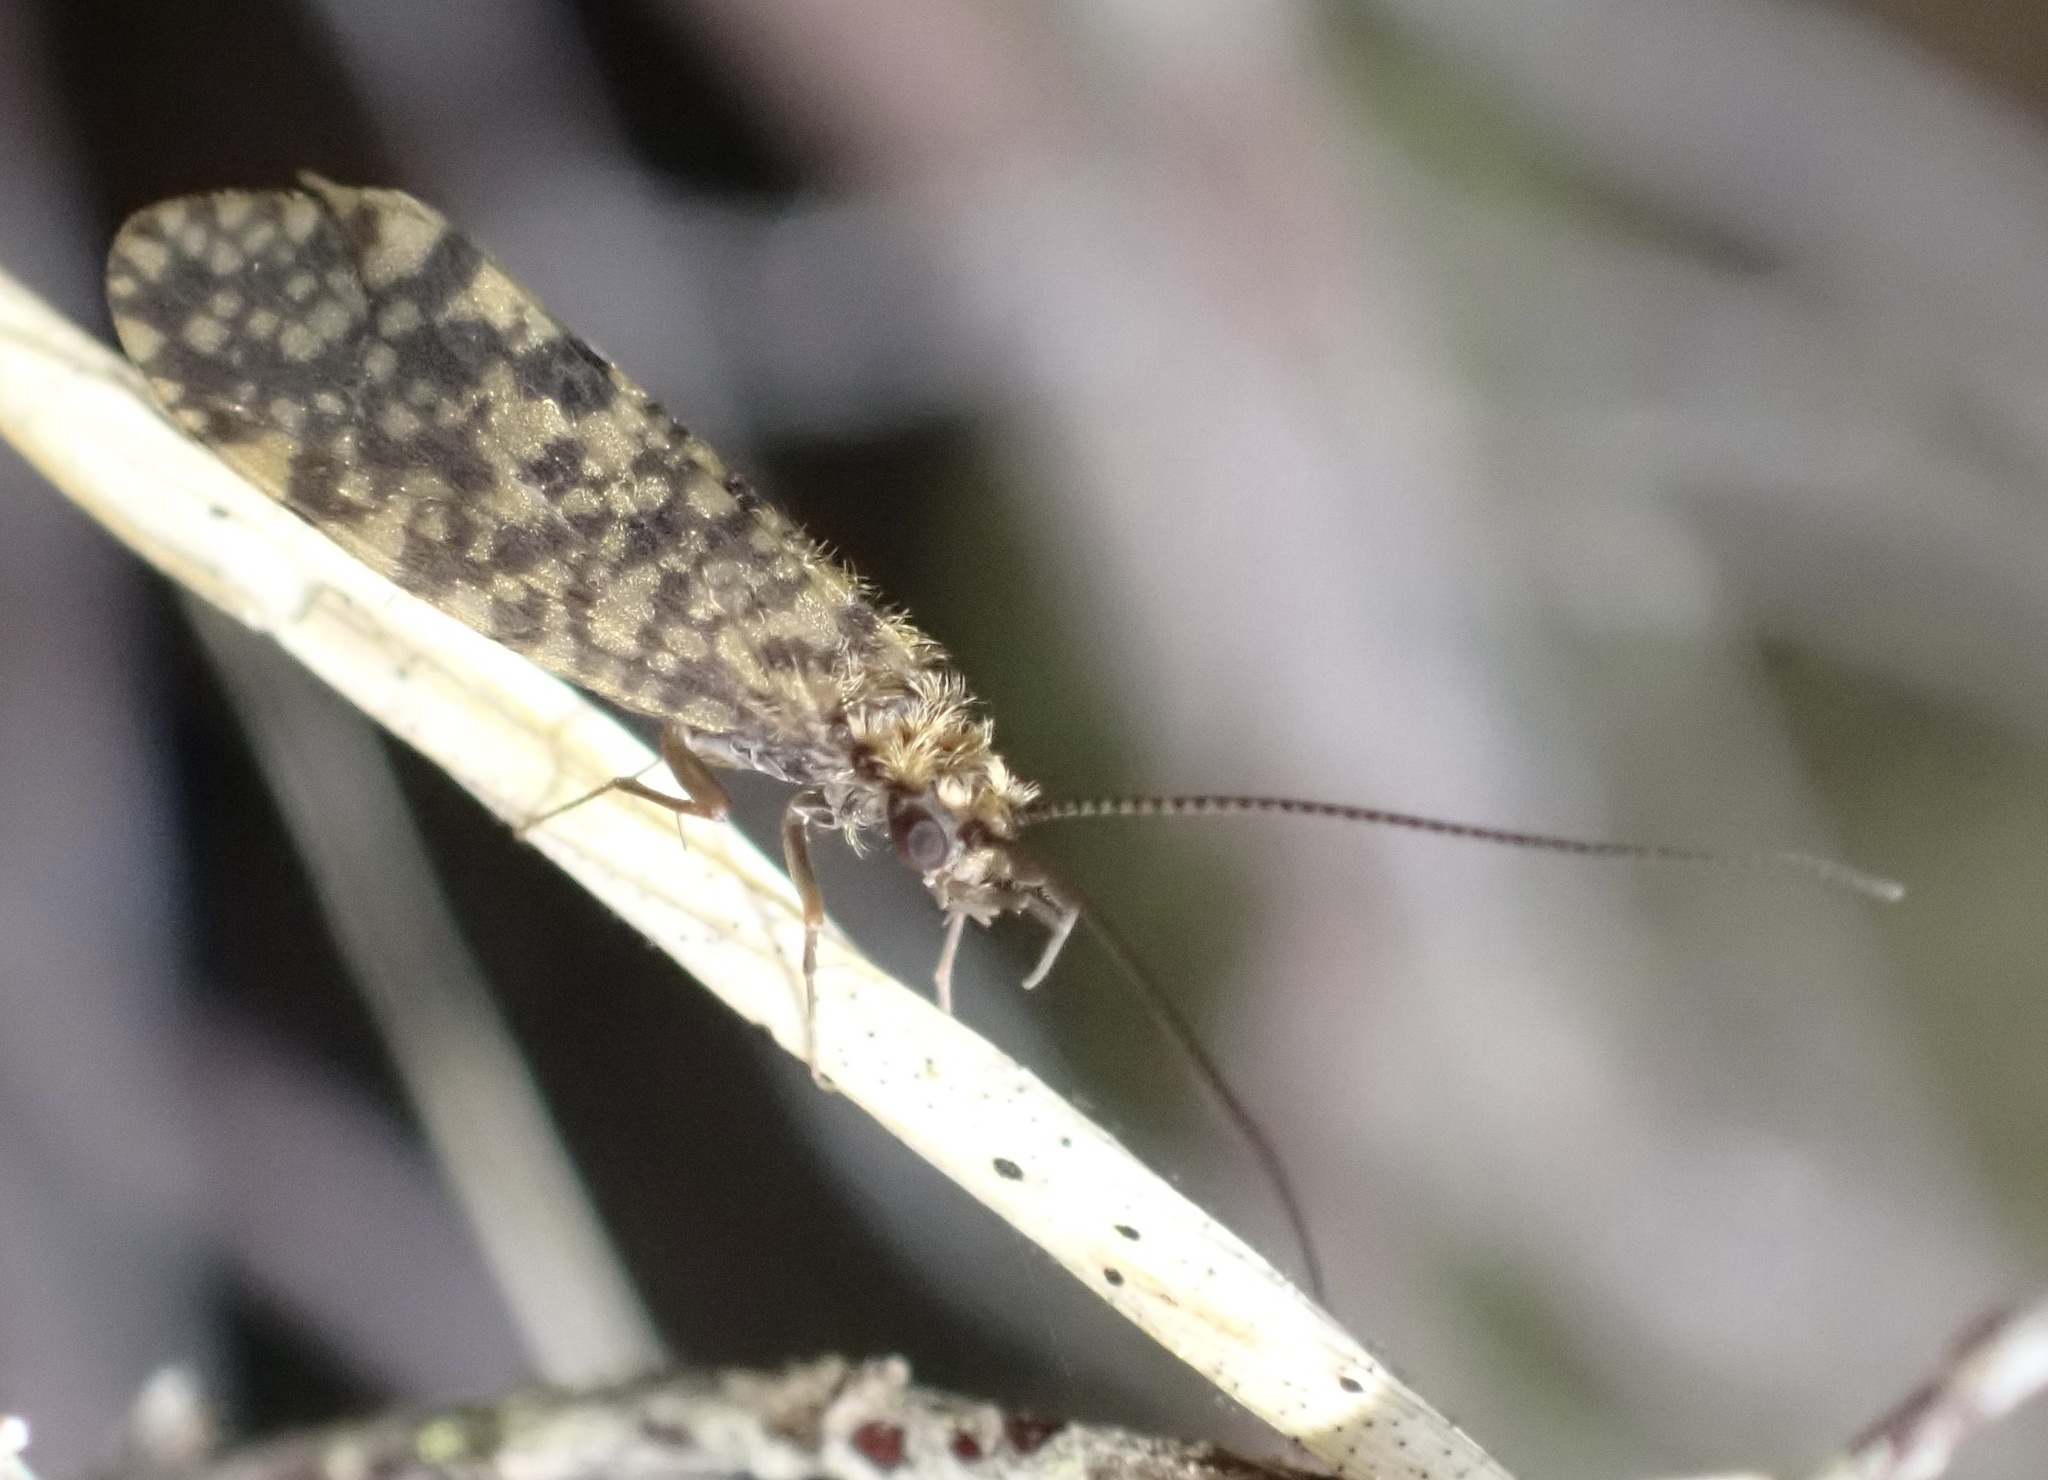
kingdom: Animalia
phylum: Arthropoda
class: Insecta
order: Trichoptera
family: Philopotamidae
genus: Philopotamus
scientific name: Philopotamus montanus
